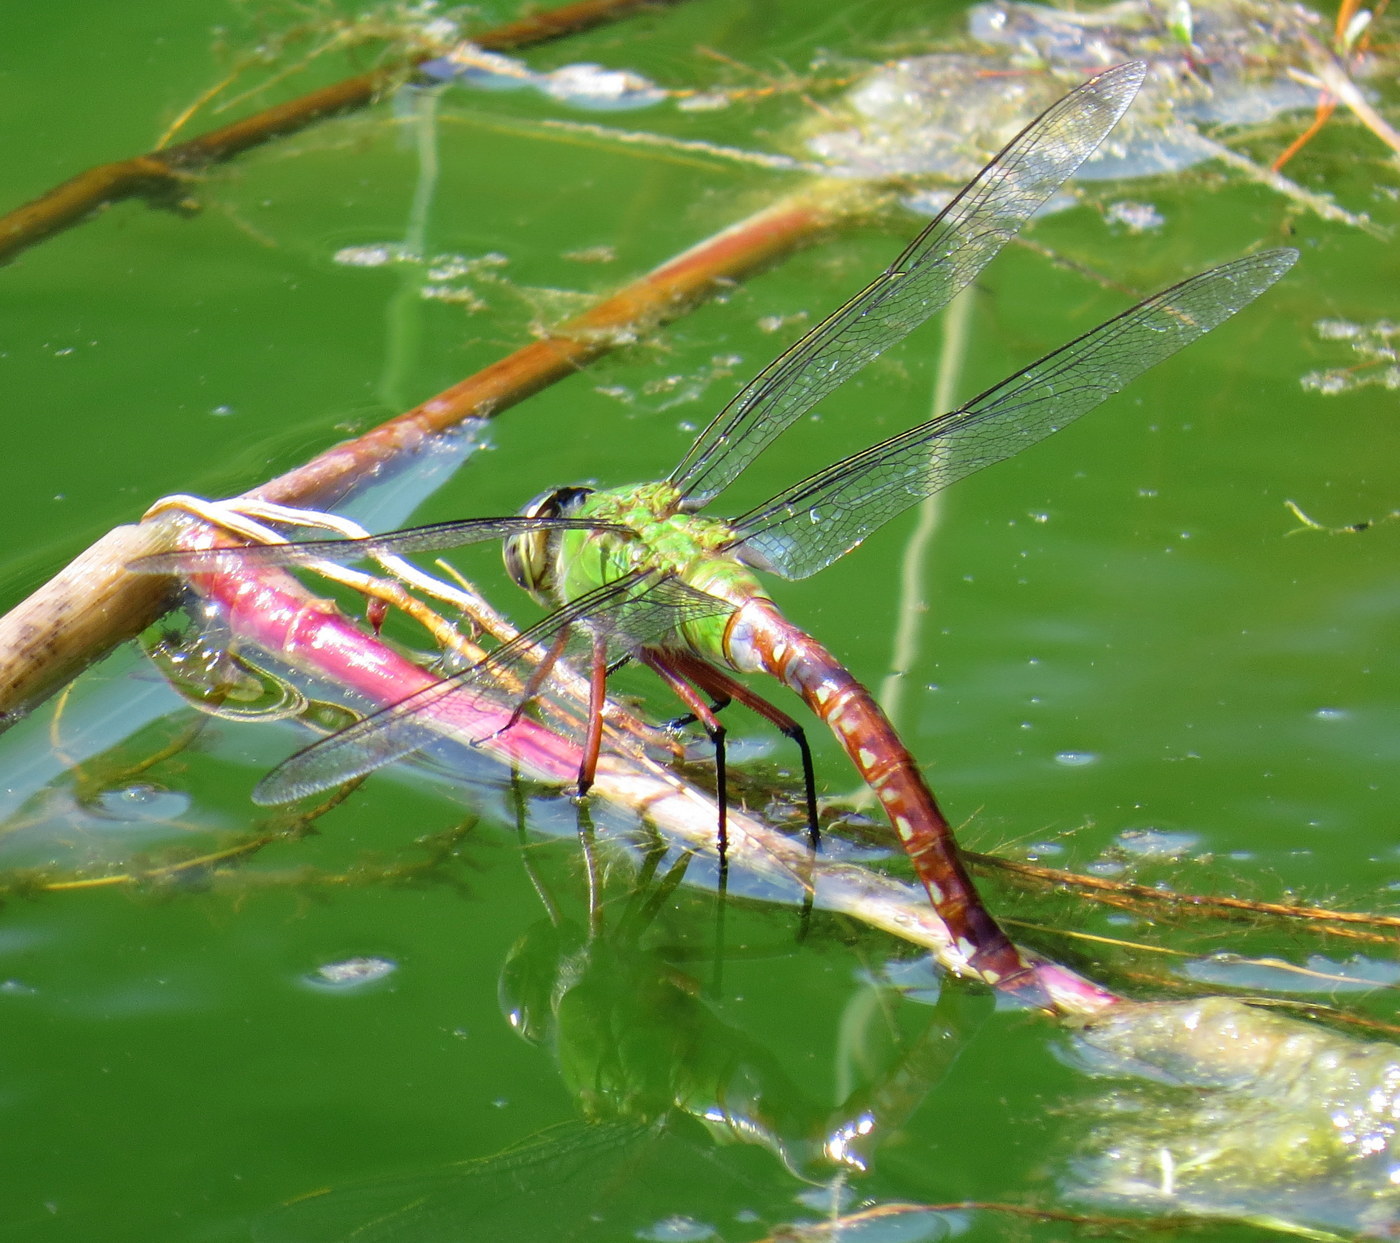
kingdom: Animalia
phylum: Arthropoda
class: Insecta
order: Odonata
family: Aeshnidae
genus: Anax
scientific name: Anax longipes
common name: Comet darner
